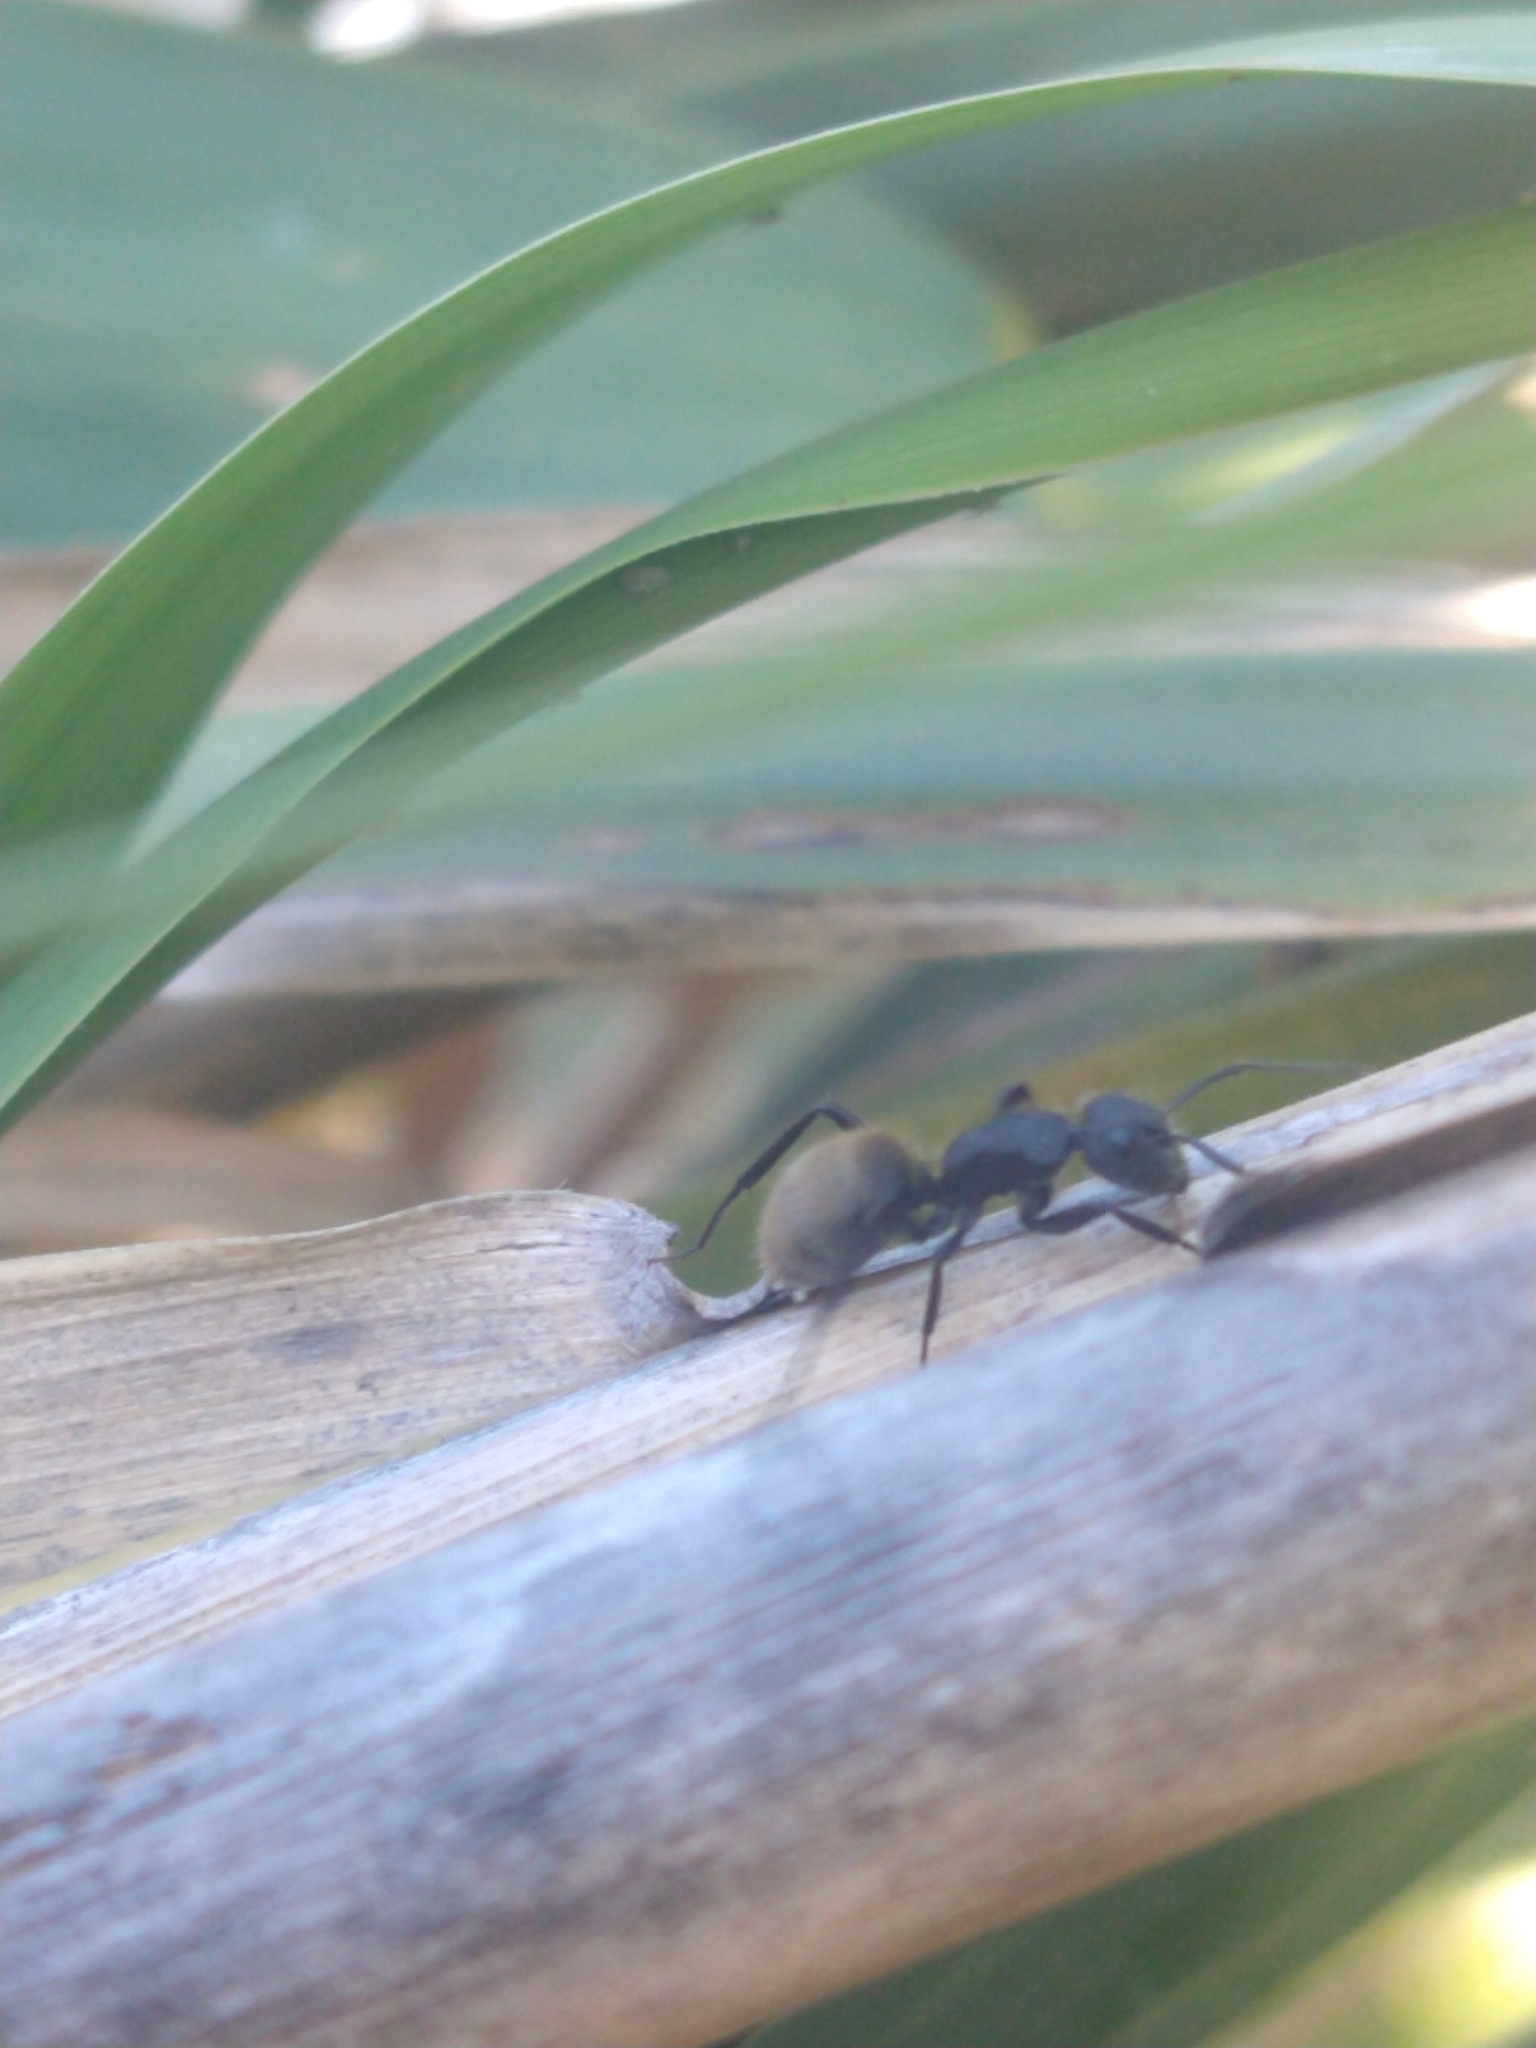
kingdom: Animalia
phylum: Arthropoda
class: Insecta
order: Hymenoptera
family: Formicidae
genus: Camponotus
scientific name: Camponotus mus
